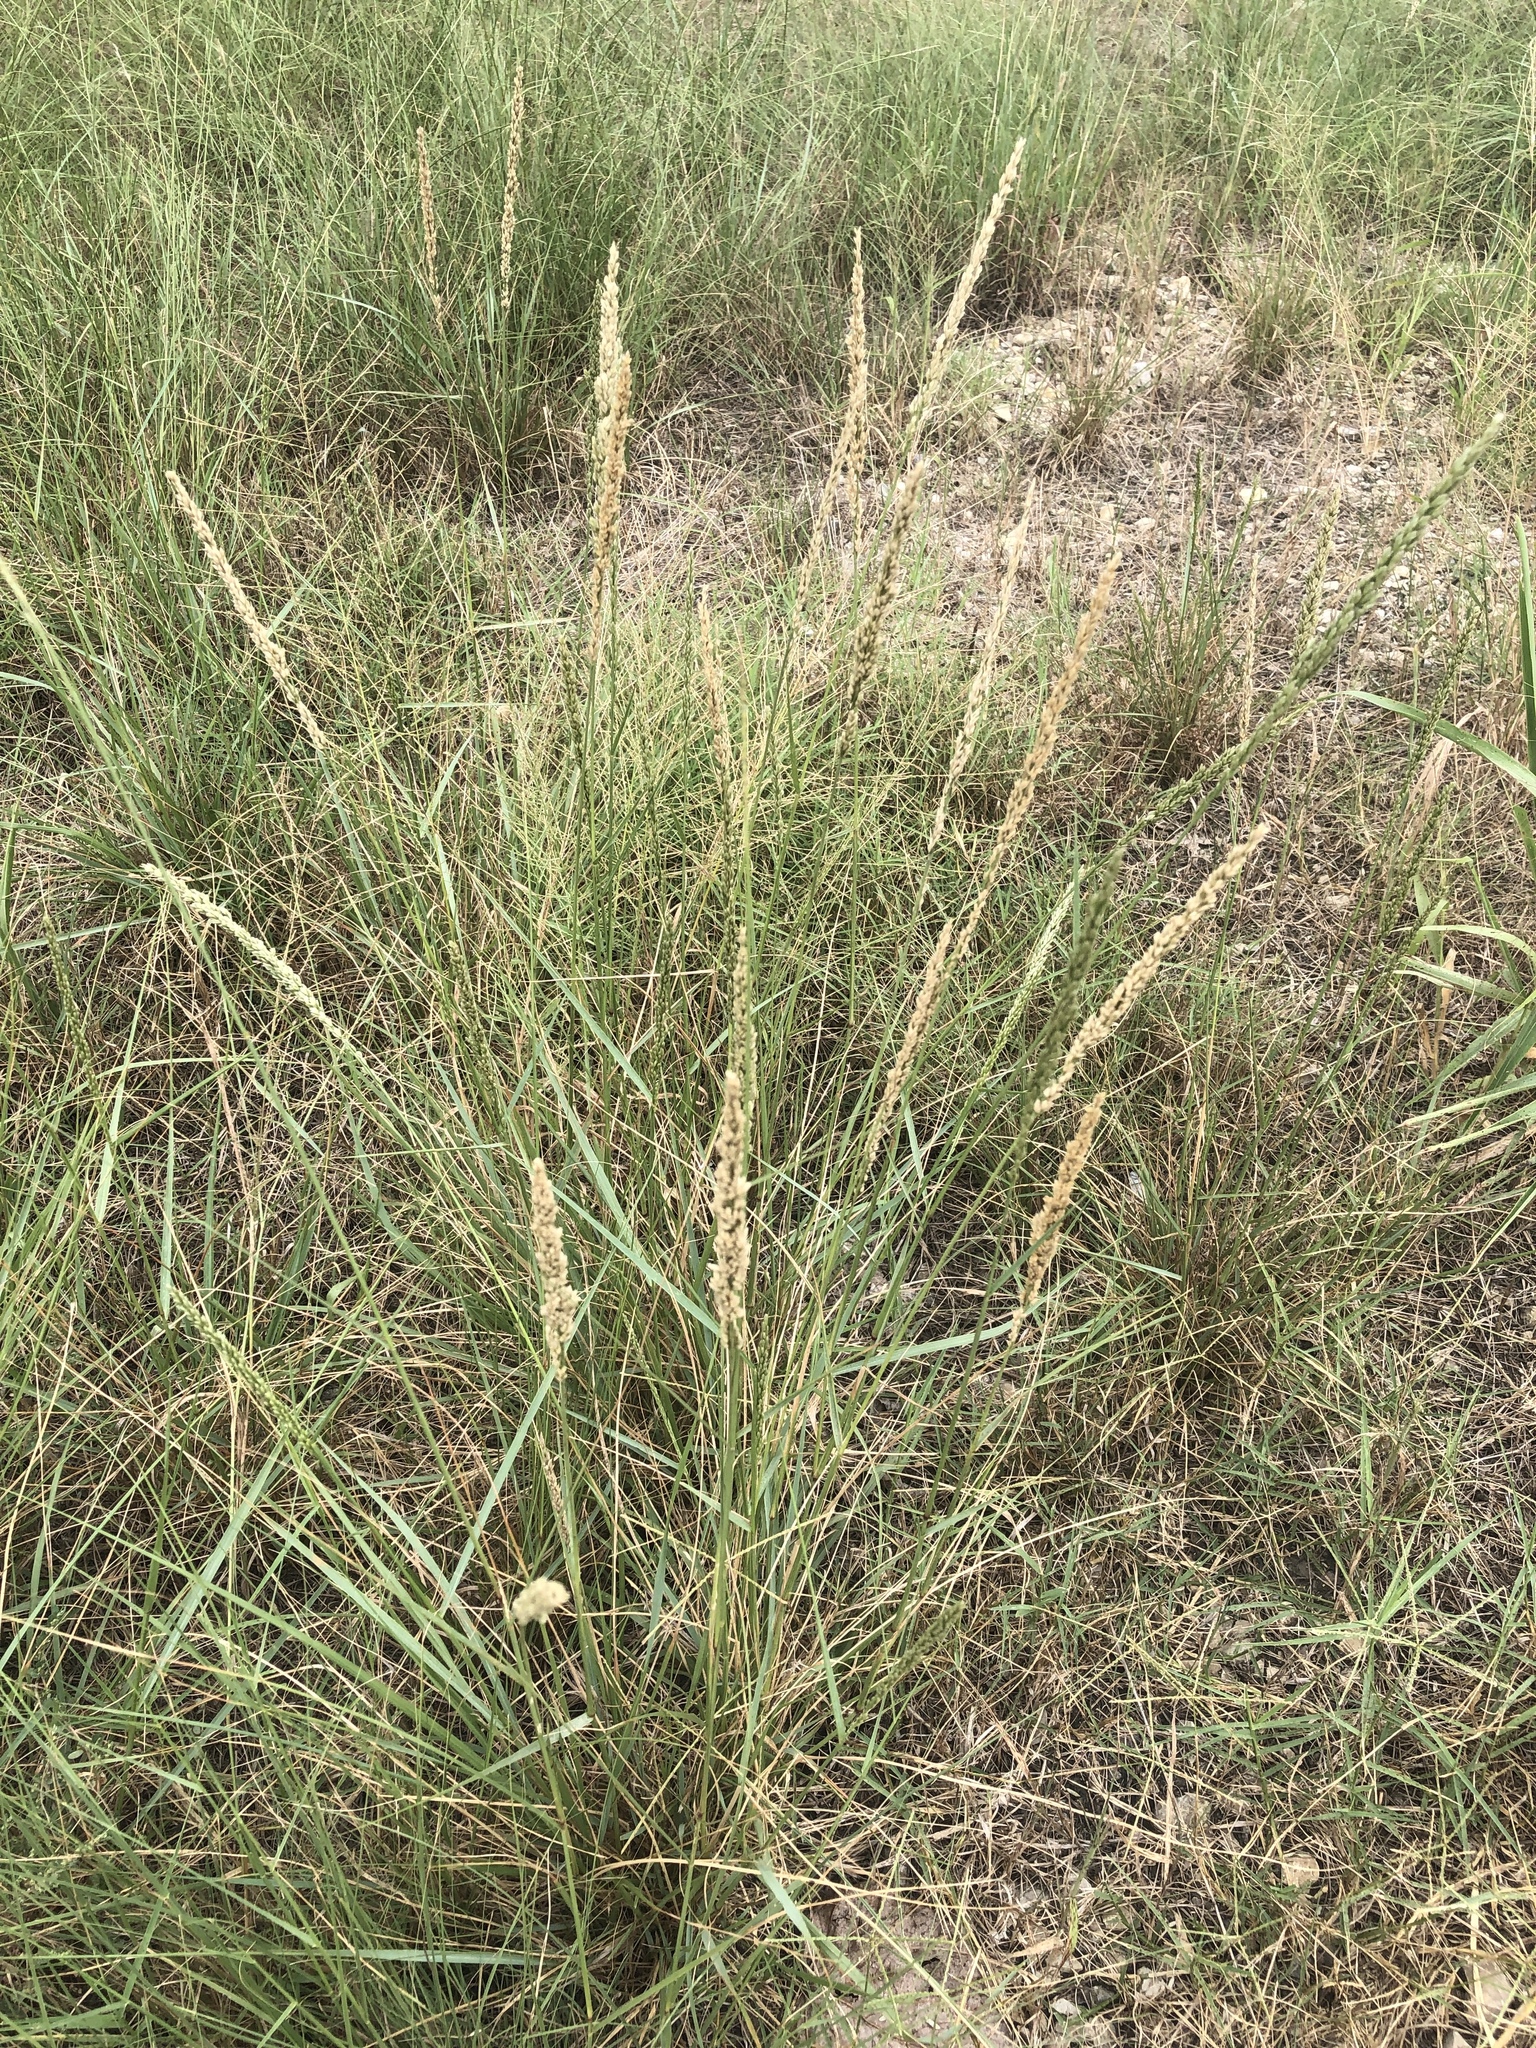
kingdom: Plantae
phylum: Tracheophyta
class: Liliopsida
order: Poales
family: Poaceae
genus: Tridens
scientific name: Tridens albescens
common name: White tridens
